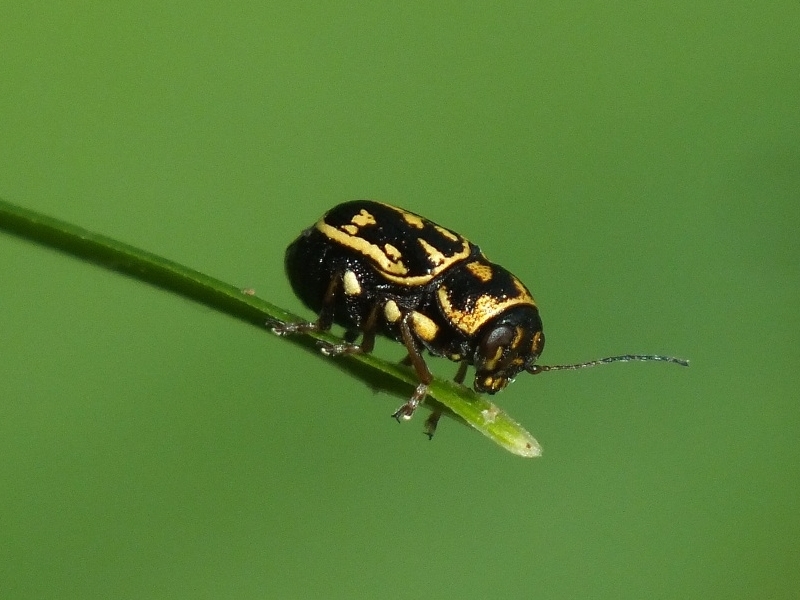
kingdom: Animalia
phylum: Arthropoda
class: Insecta
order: Coleoptera
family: Chrysomelidae
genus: Pachybrachis
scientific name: Pachybrachis fimbriolatus
